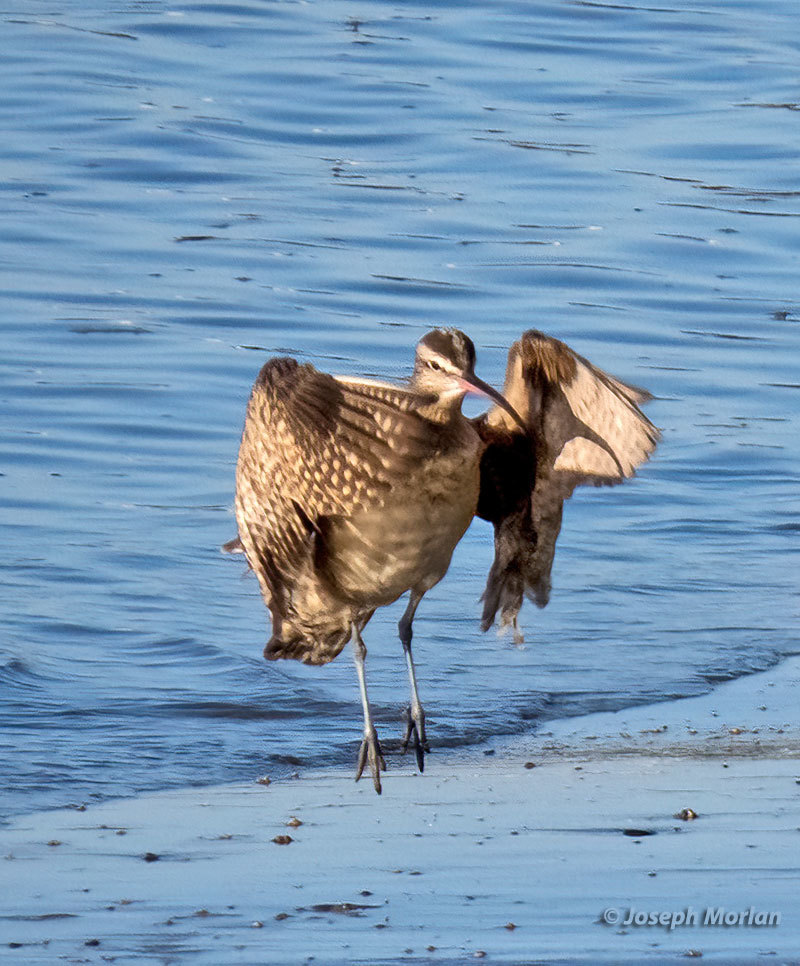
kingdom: Animalia
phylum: Chordata
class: Aves
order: Charadriiformes
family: Scolopacidae
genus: Numenius
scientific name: Numenius phaeopus
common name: Whimbrel
